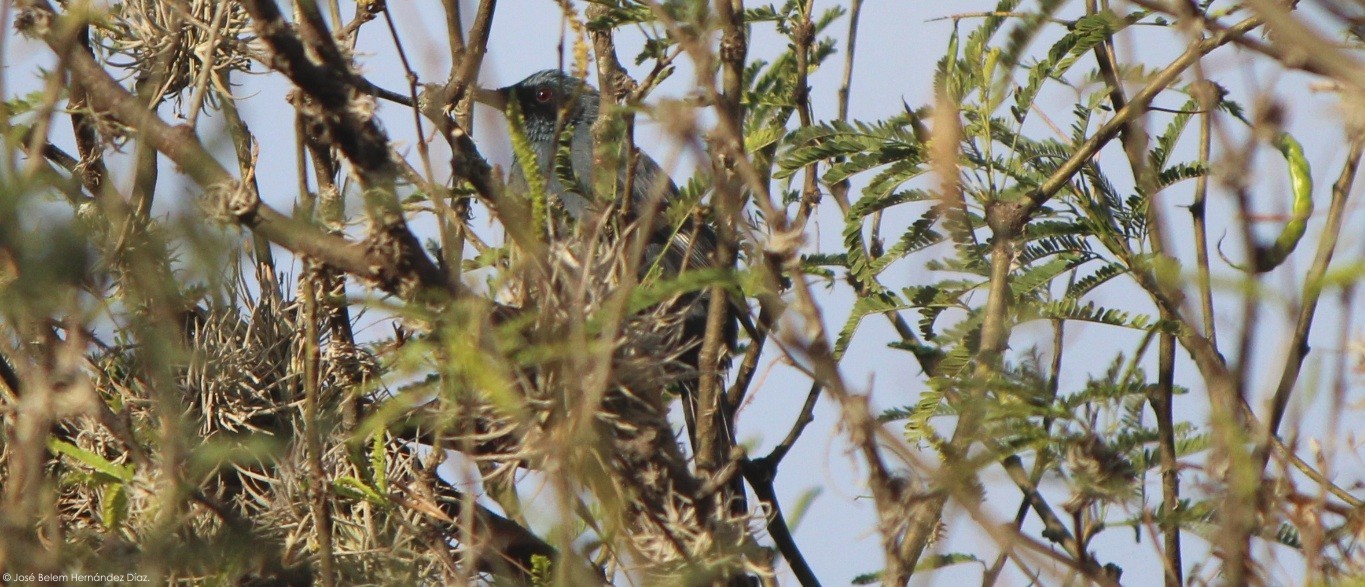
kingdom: Animalia
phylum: Chordata
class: Aves
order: Passeriformes
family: Mimidae
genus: Melanotis
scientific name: Melanotis caerulescens
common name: Blue mockingbird
